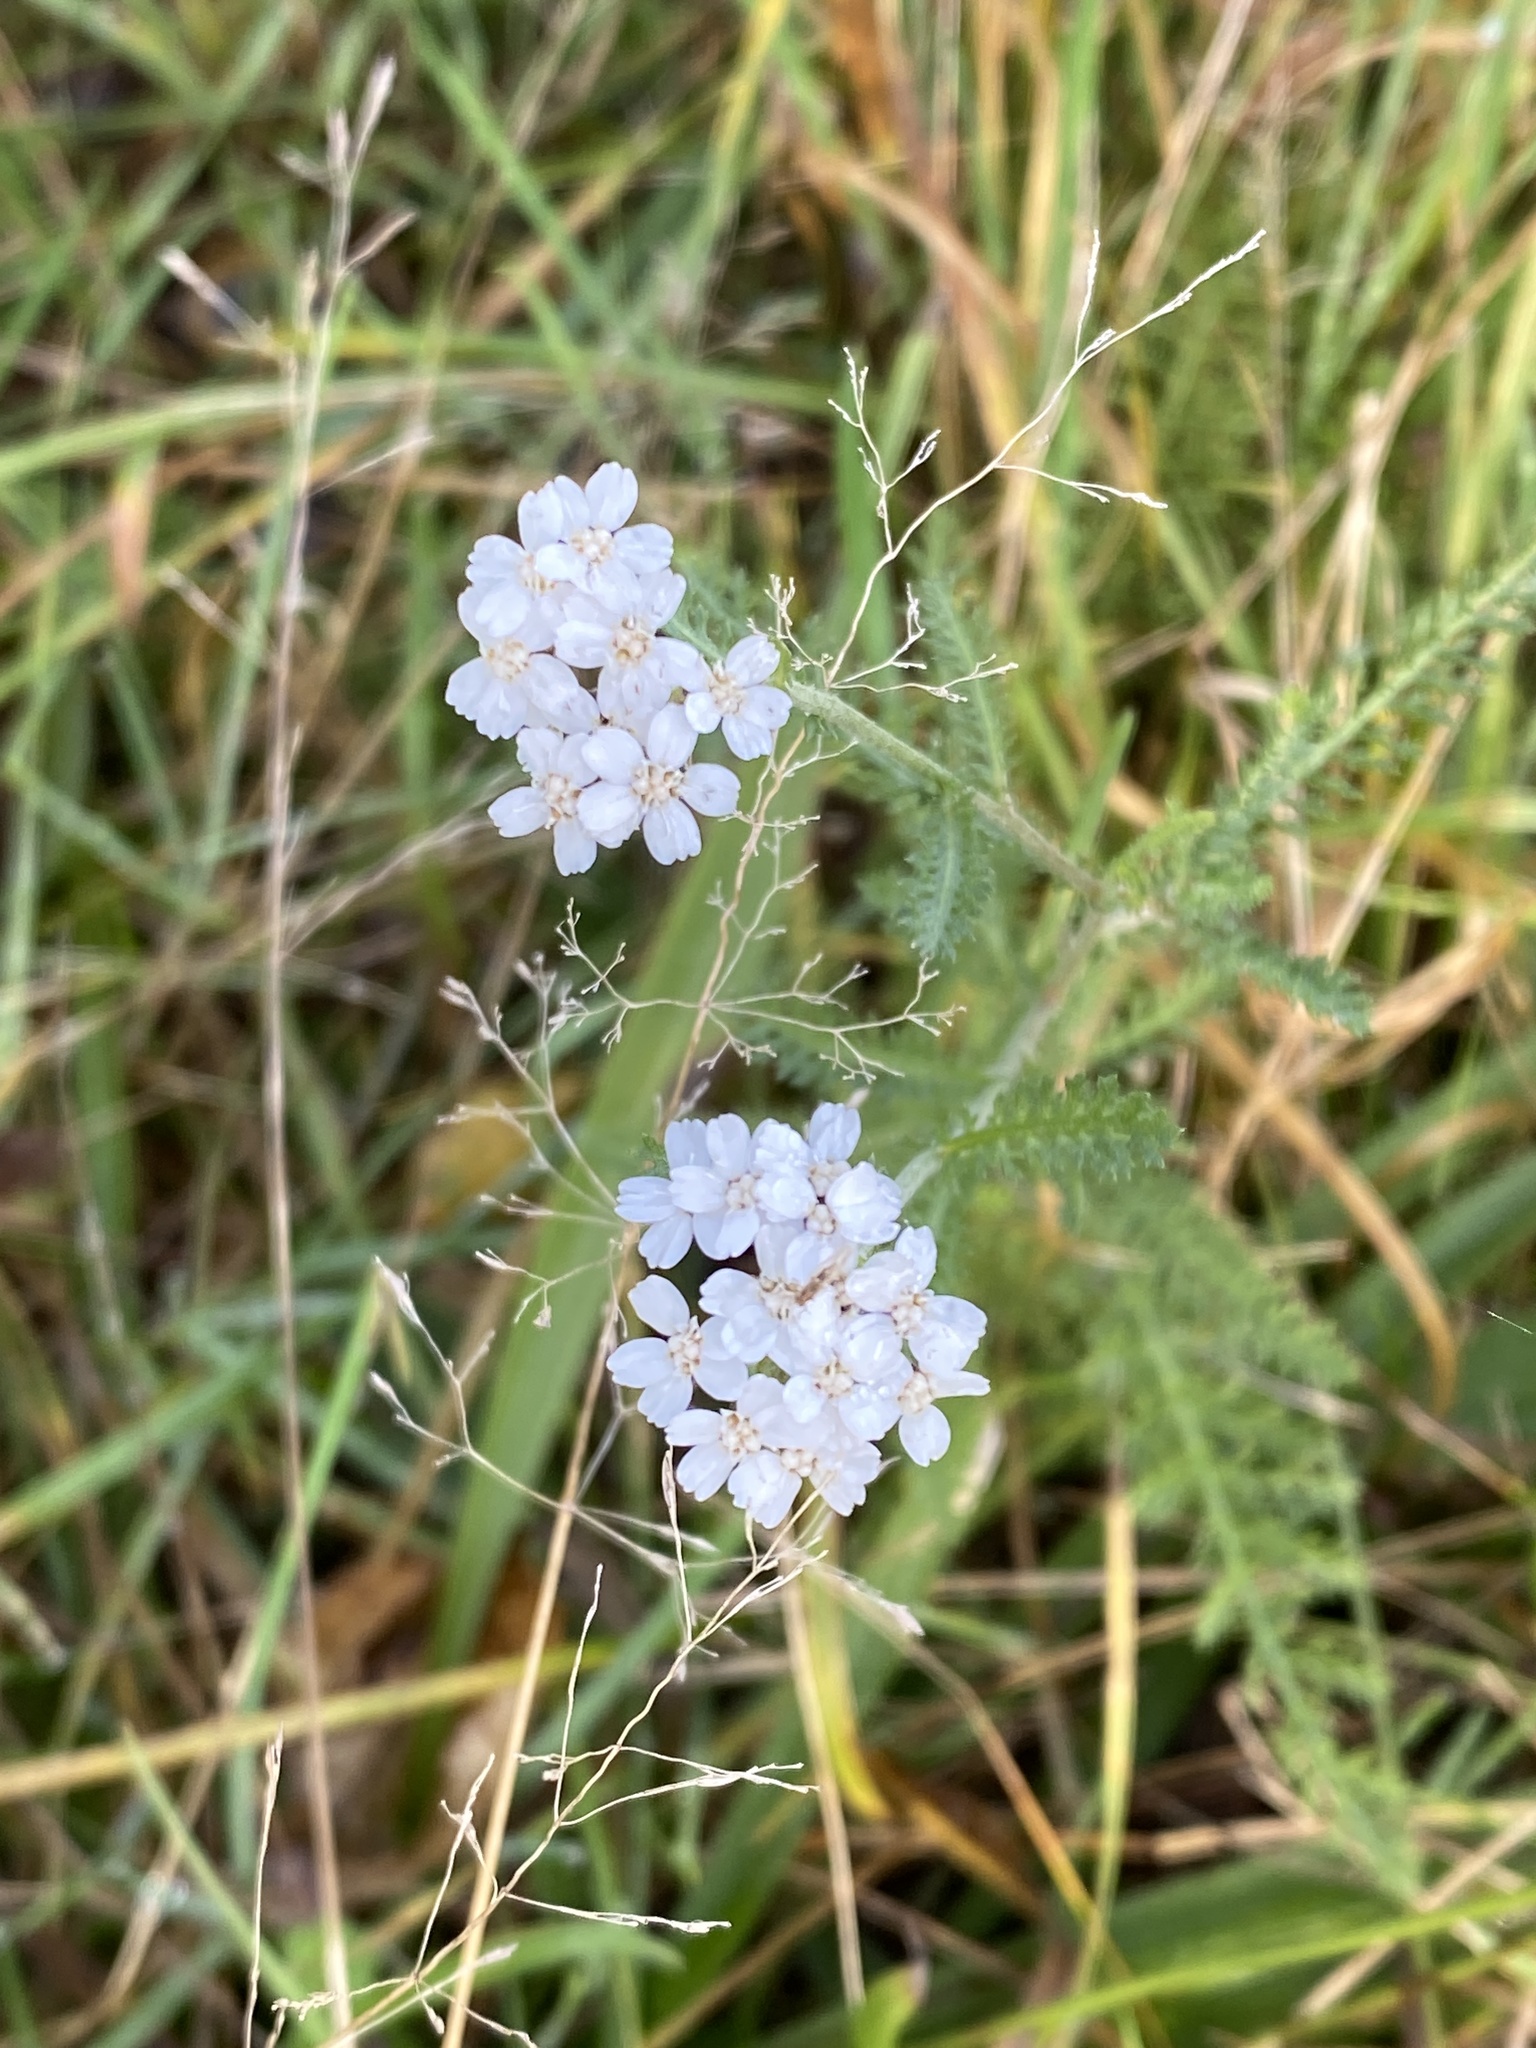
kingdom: Plantae
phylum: Tracheophyta
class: Magnoliopsida
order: Asterales
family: Asteraceae
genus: Achillea
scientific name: Achillea millefolium
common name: Yarrow
